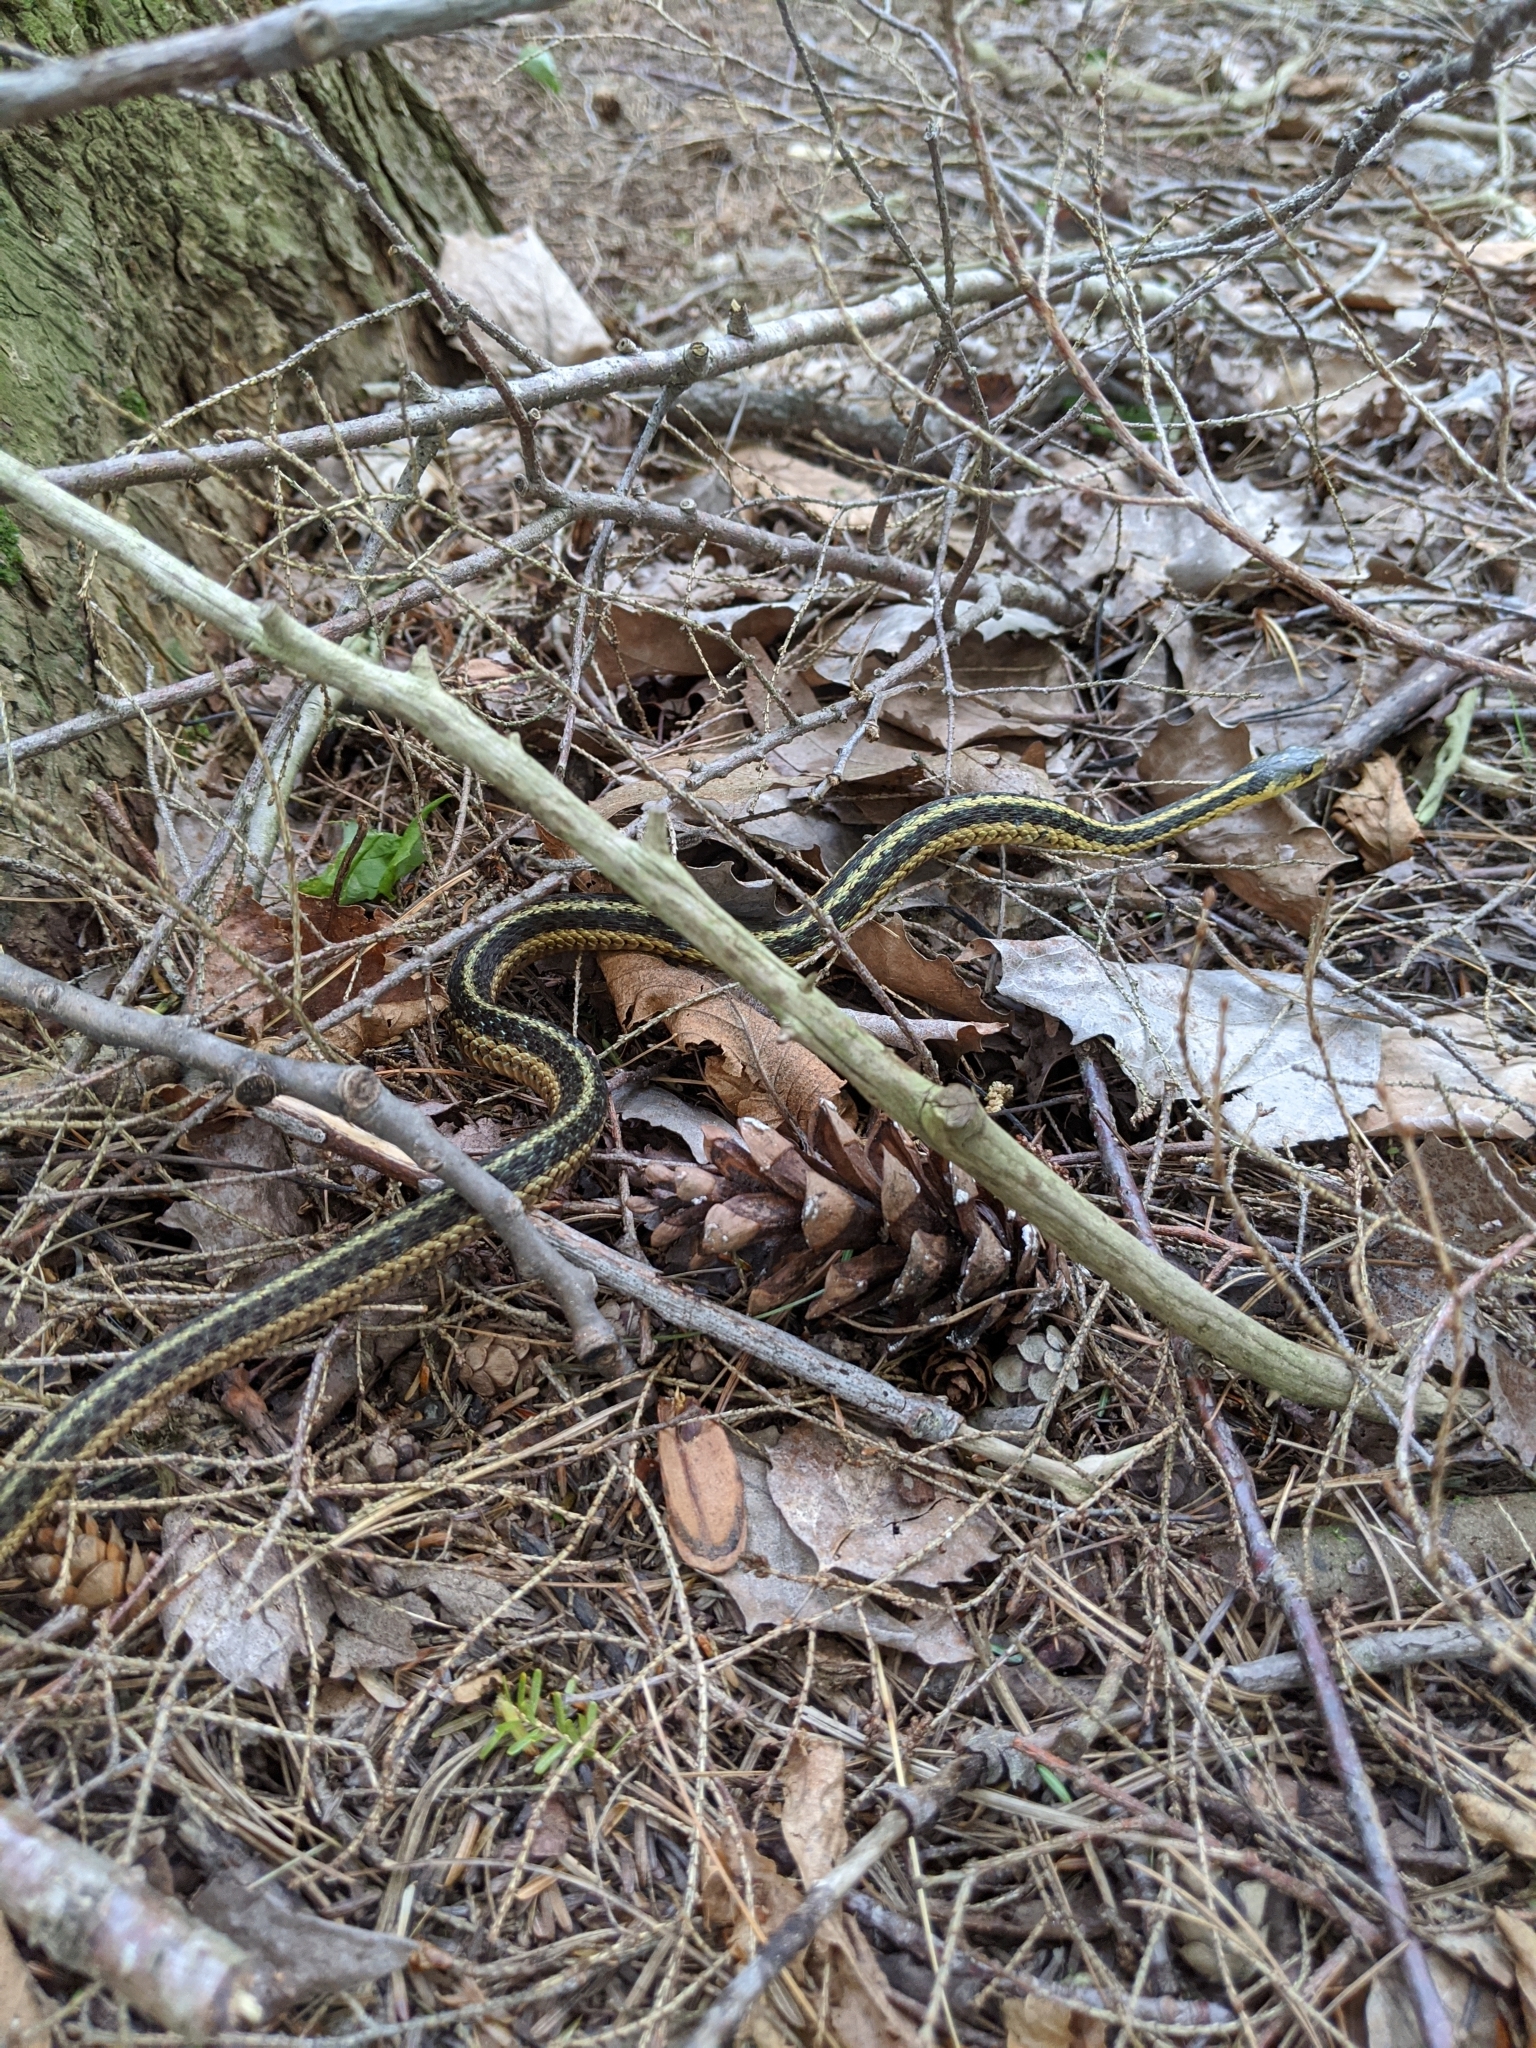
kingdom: Animalia
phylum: Chordata
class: Squamata
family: Colubridae
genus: Thamnophis
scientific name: Thamnophis sirtalis
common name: Common garter snake
